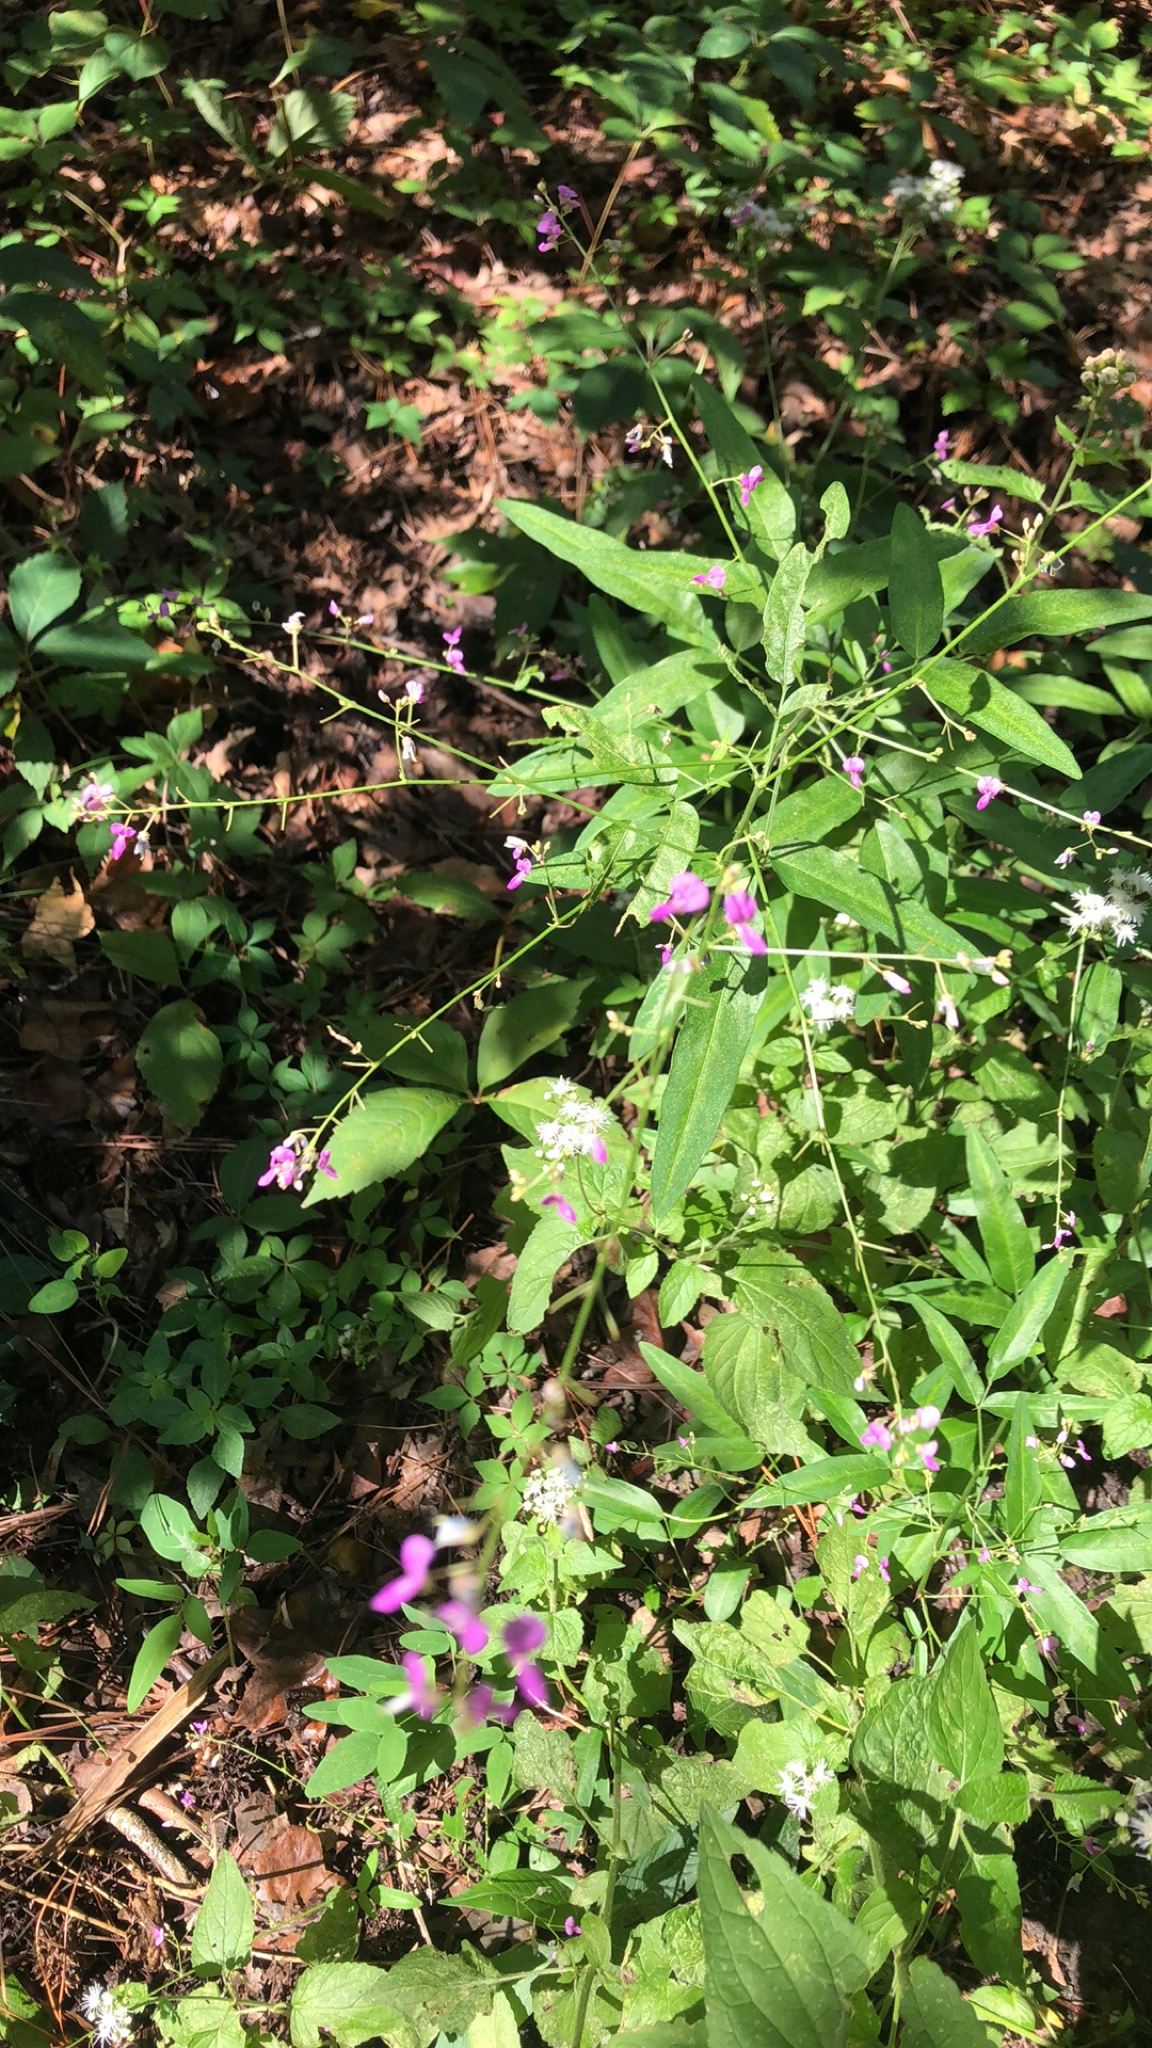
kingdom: Plantae
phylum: Tracheophyta
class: Magnoliopsida
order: Fabales
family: Fabaceae
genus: Desmodium
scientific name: Desmodium paniculatum
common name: Panicled tick-clover
